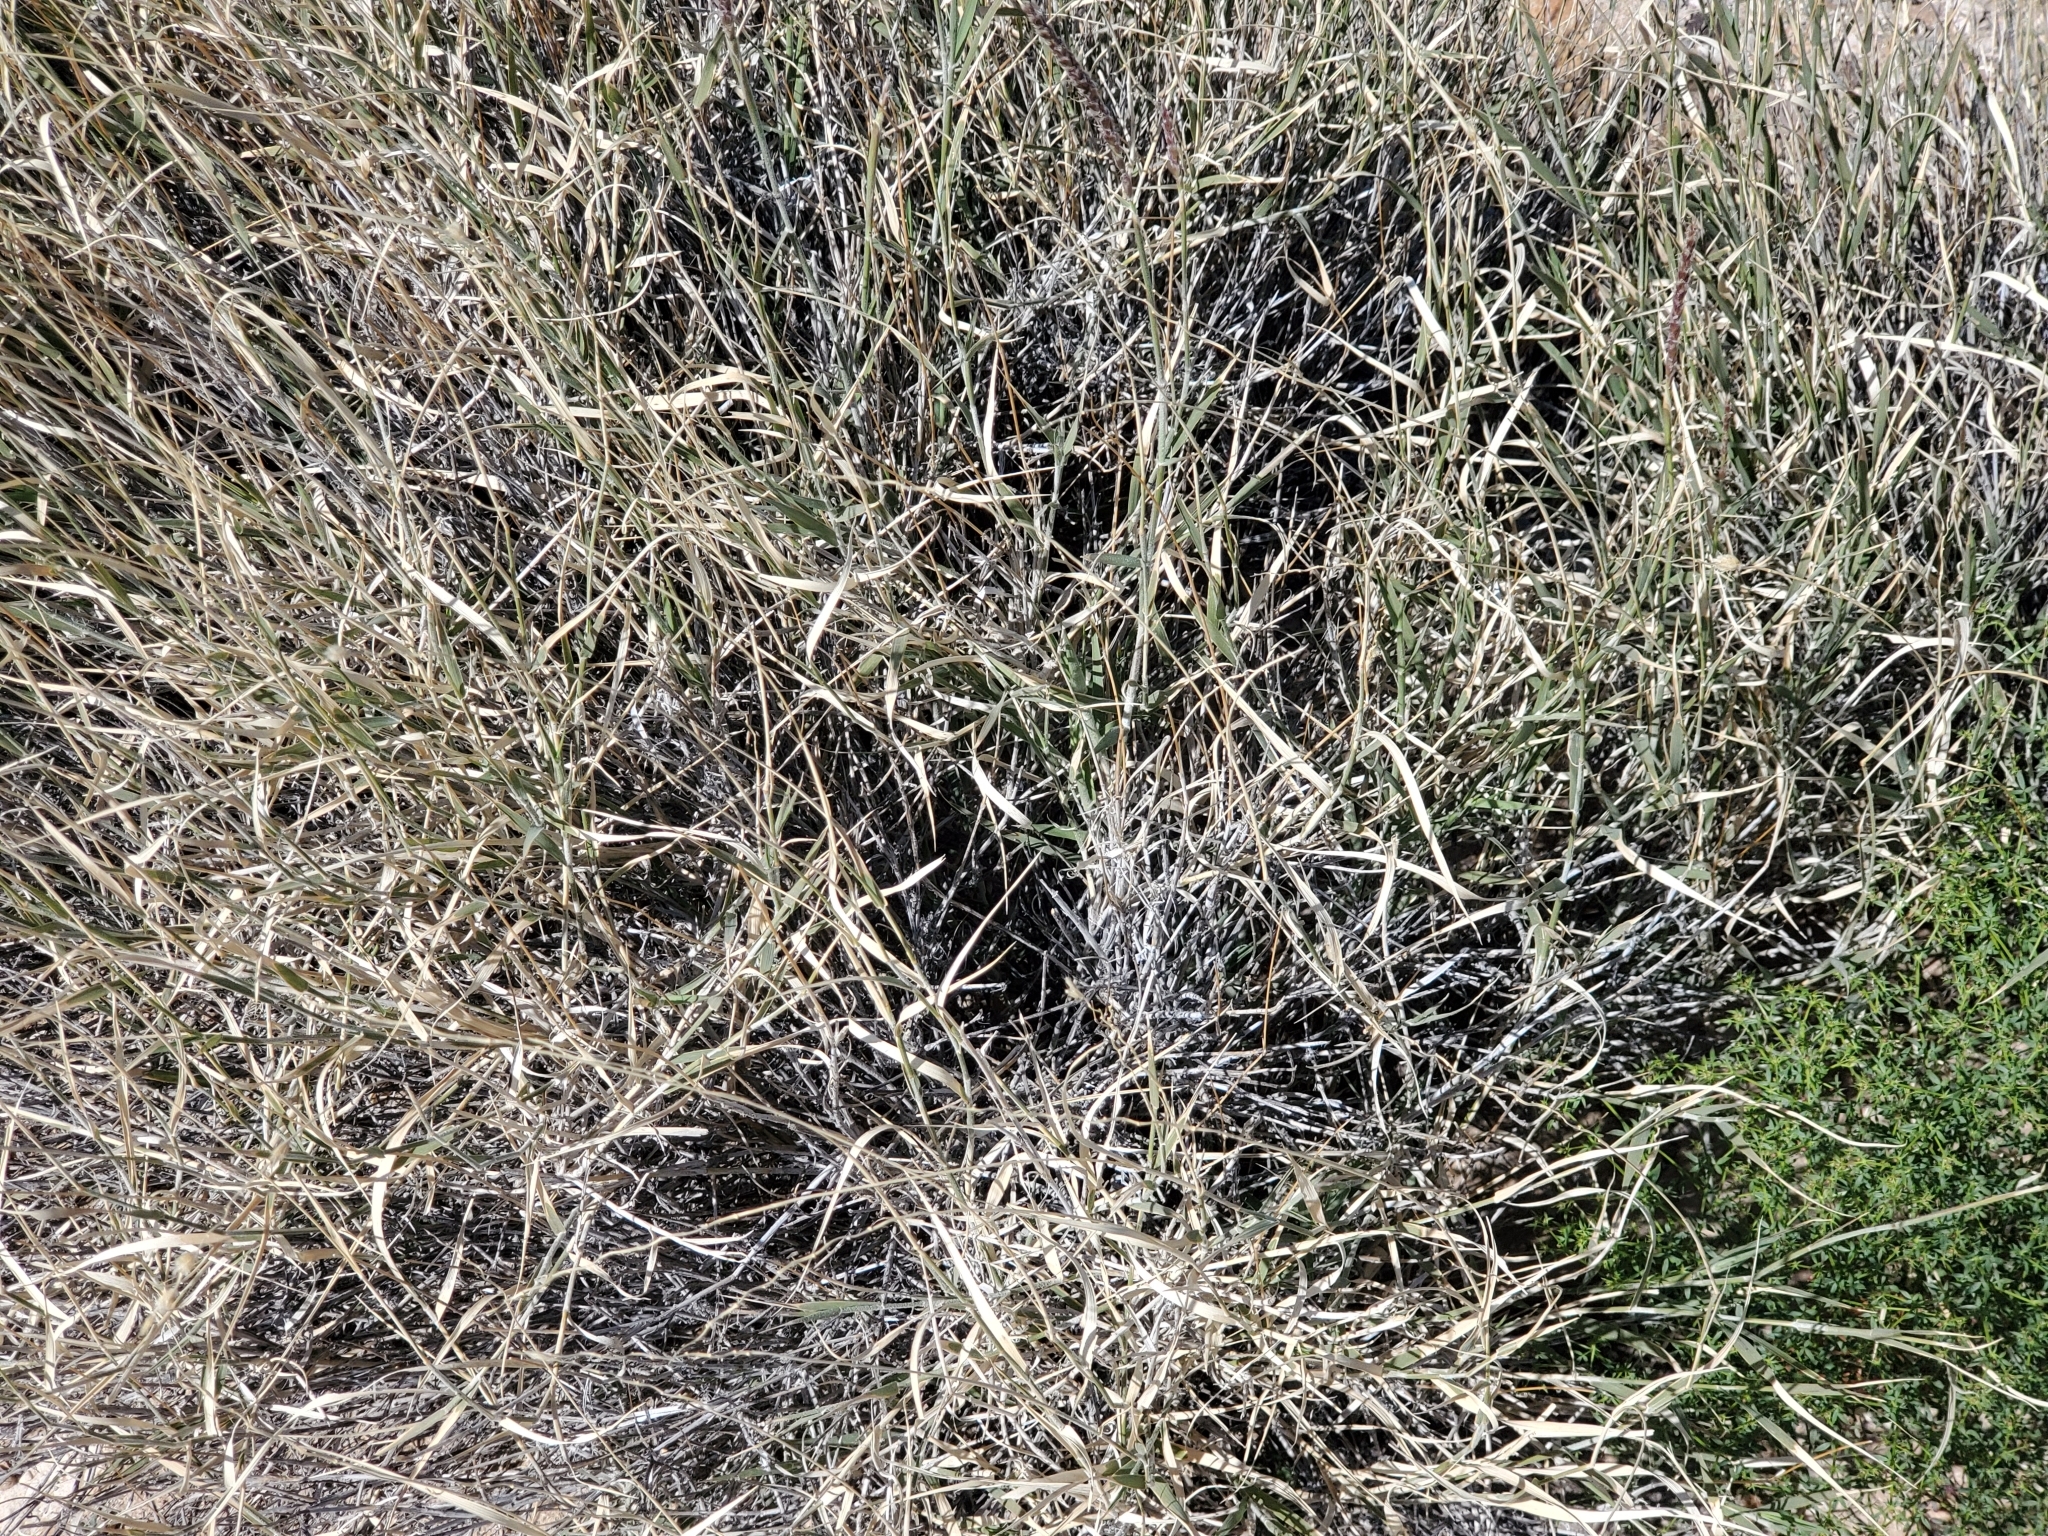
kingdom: Plantae
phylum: Tracheophyta
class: Liliopsida
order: Poales
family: Poaceae
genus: Hilaria
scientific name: Hilaria rigida
